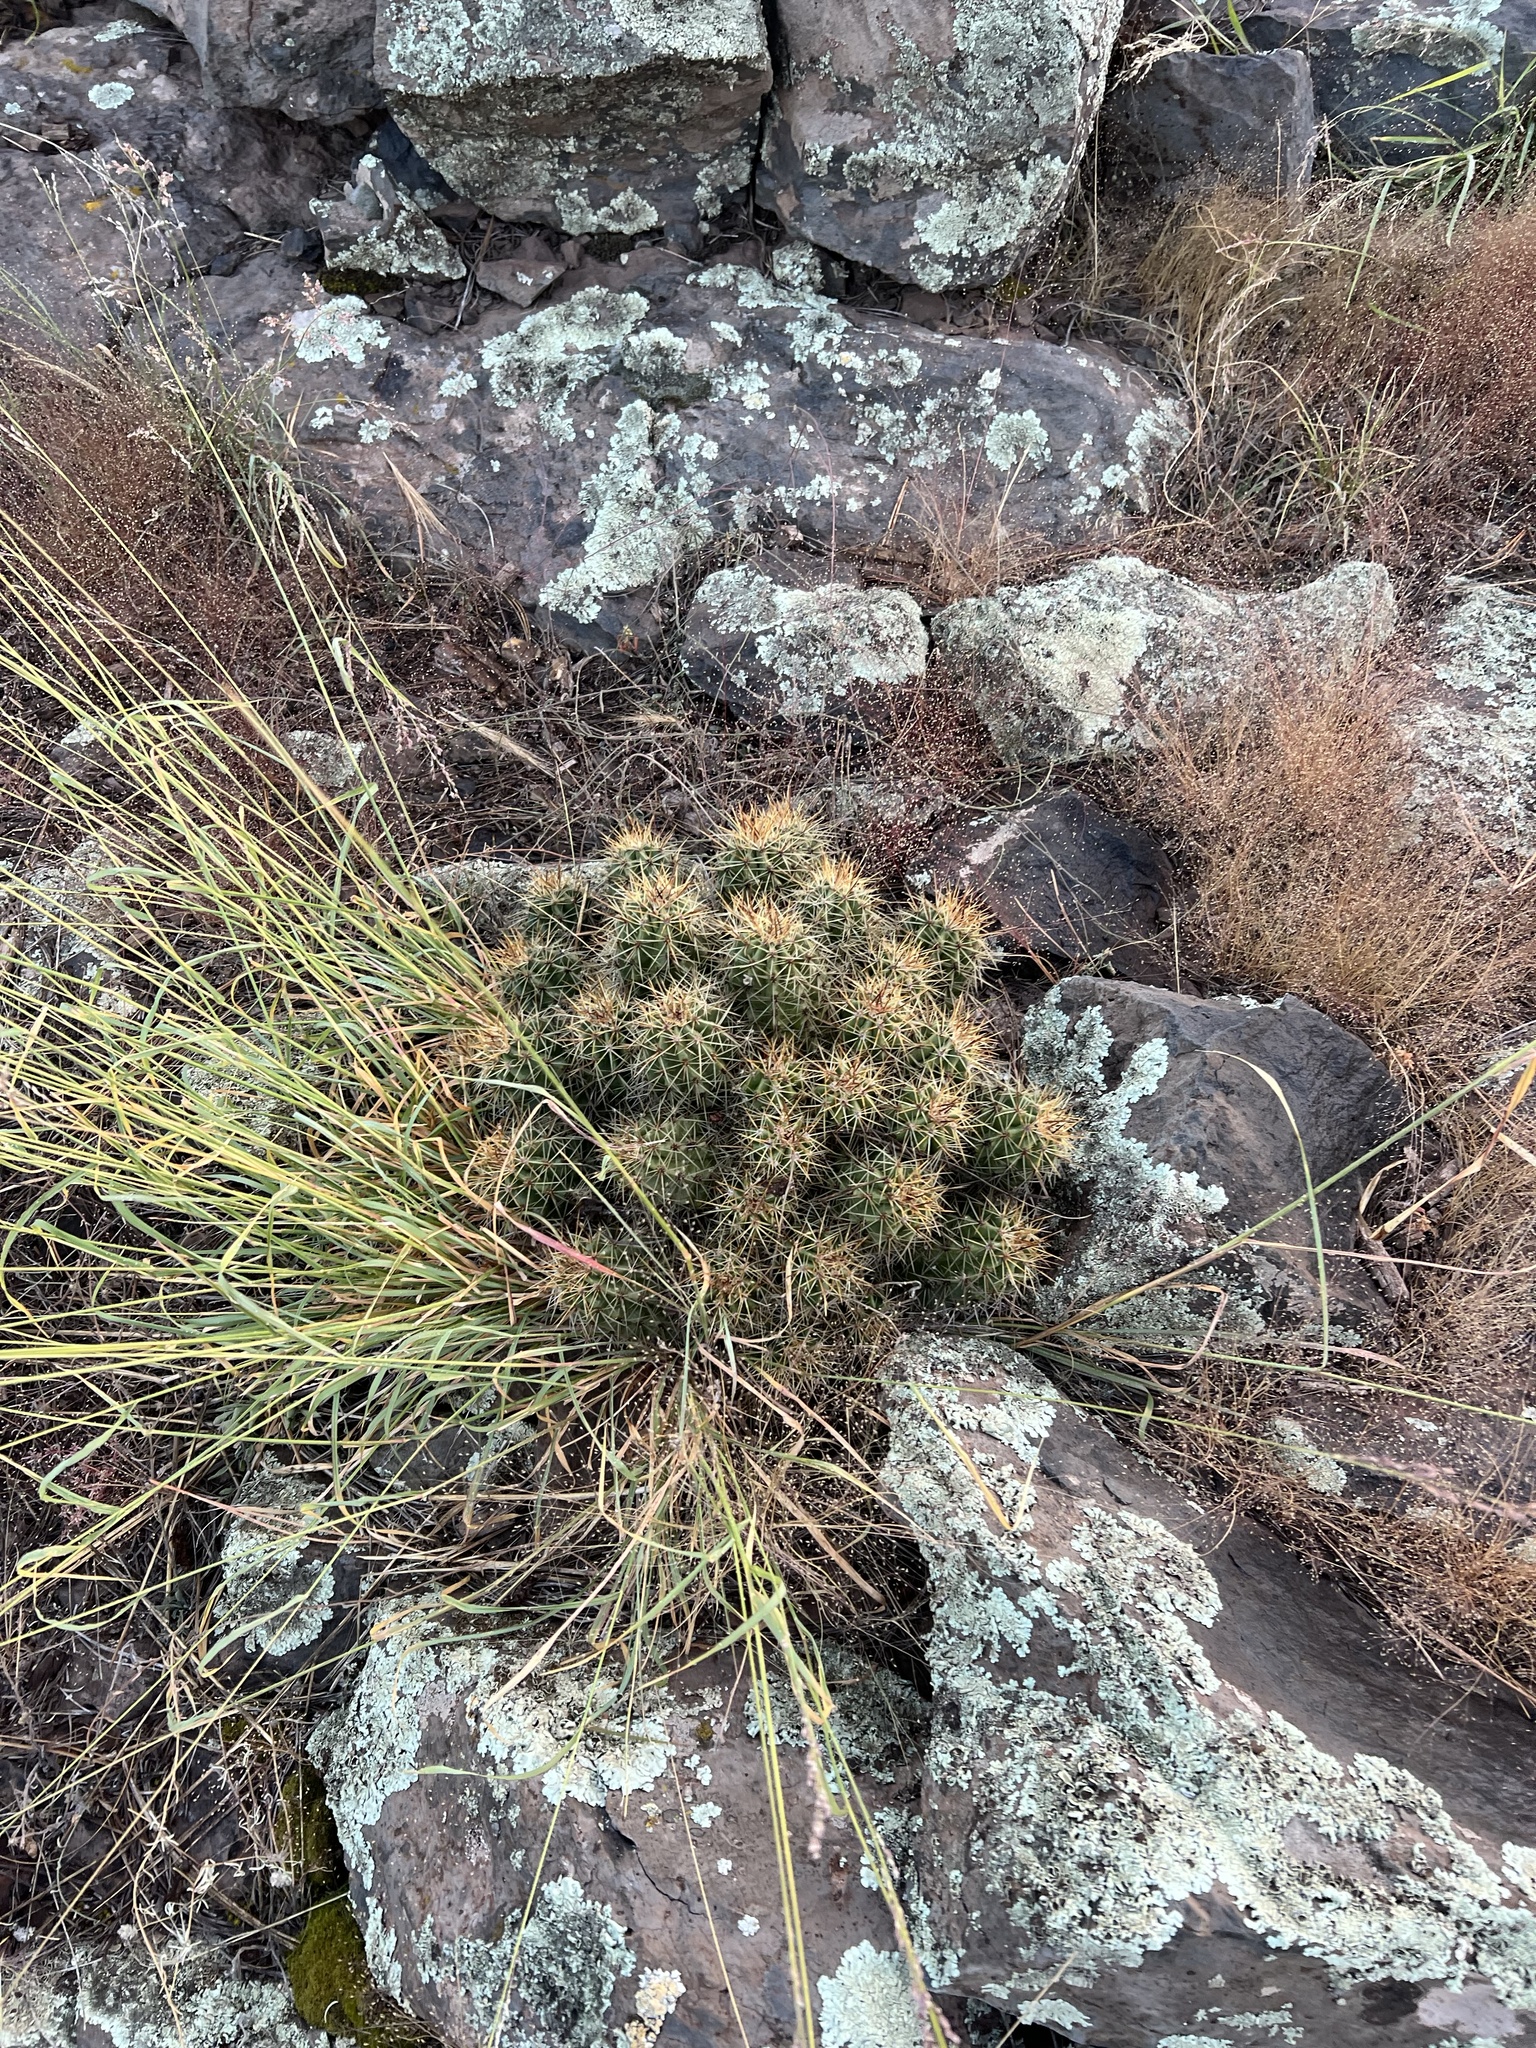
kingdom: Plantae
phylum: Tracheophyta
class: Magnoliopsida
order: Caryophyllales
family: Cactaceae
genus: Echinocereus
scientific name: Echinocereus bakeri
